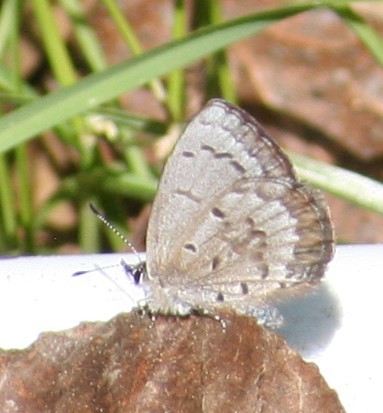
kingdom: Animalia
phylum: Arthropoda
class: Insecta
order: Lepidoptera
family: Lycaenidae
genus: Celastrina
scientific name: Celastrina lucia
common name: Lucia azure
